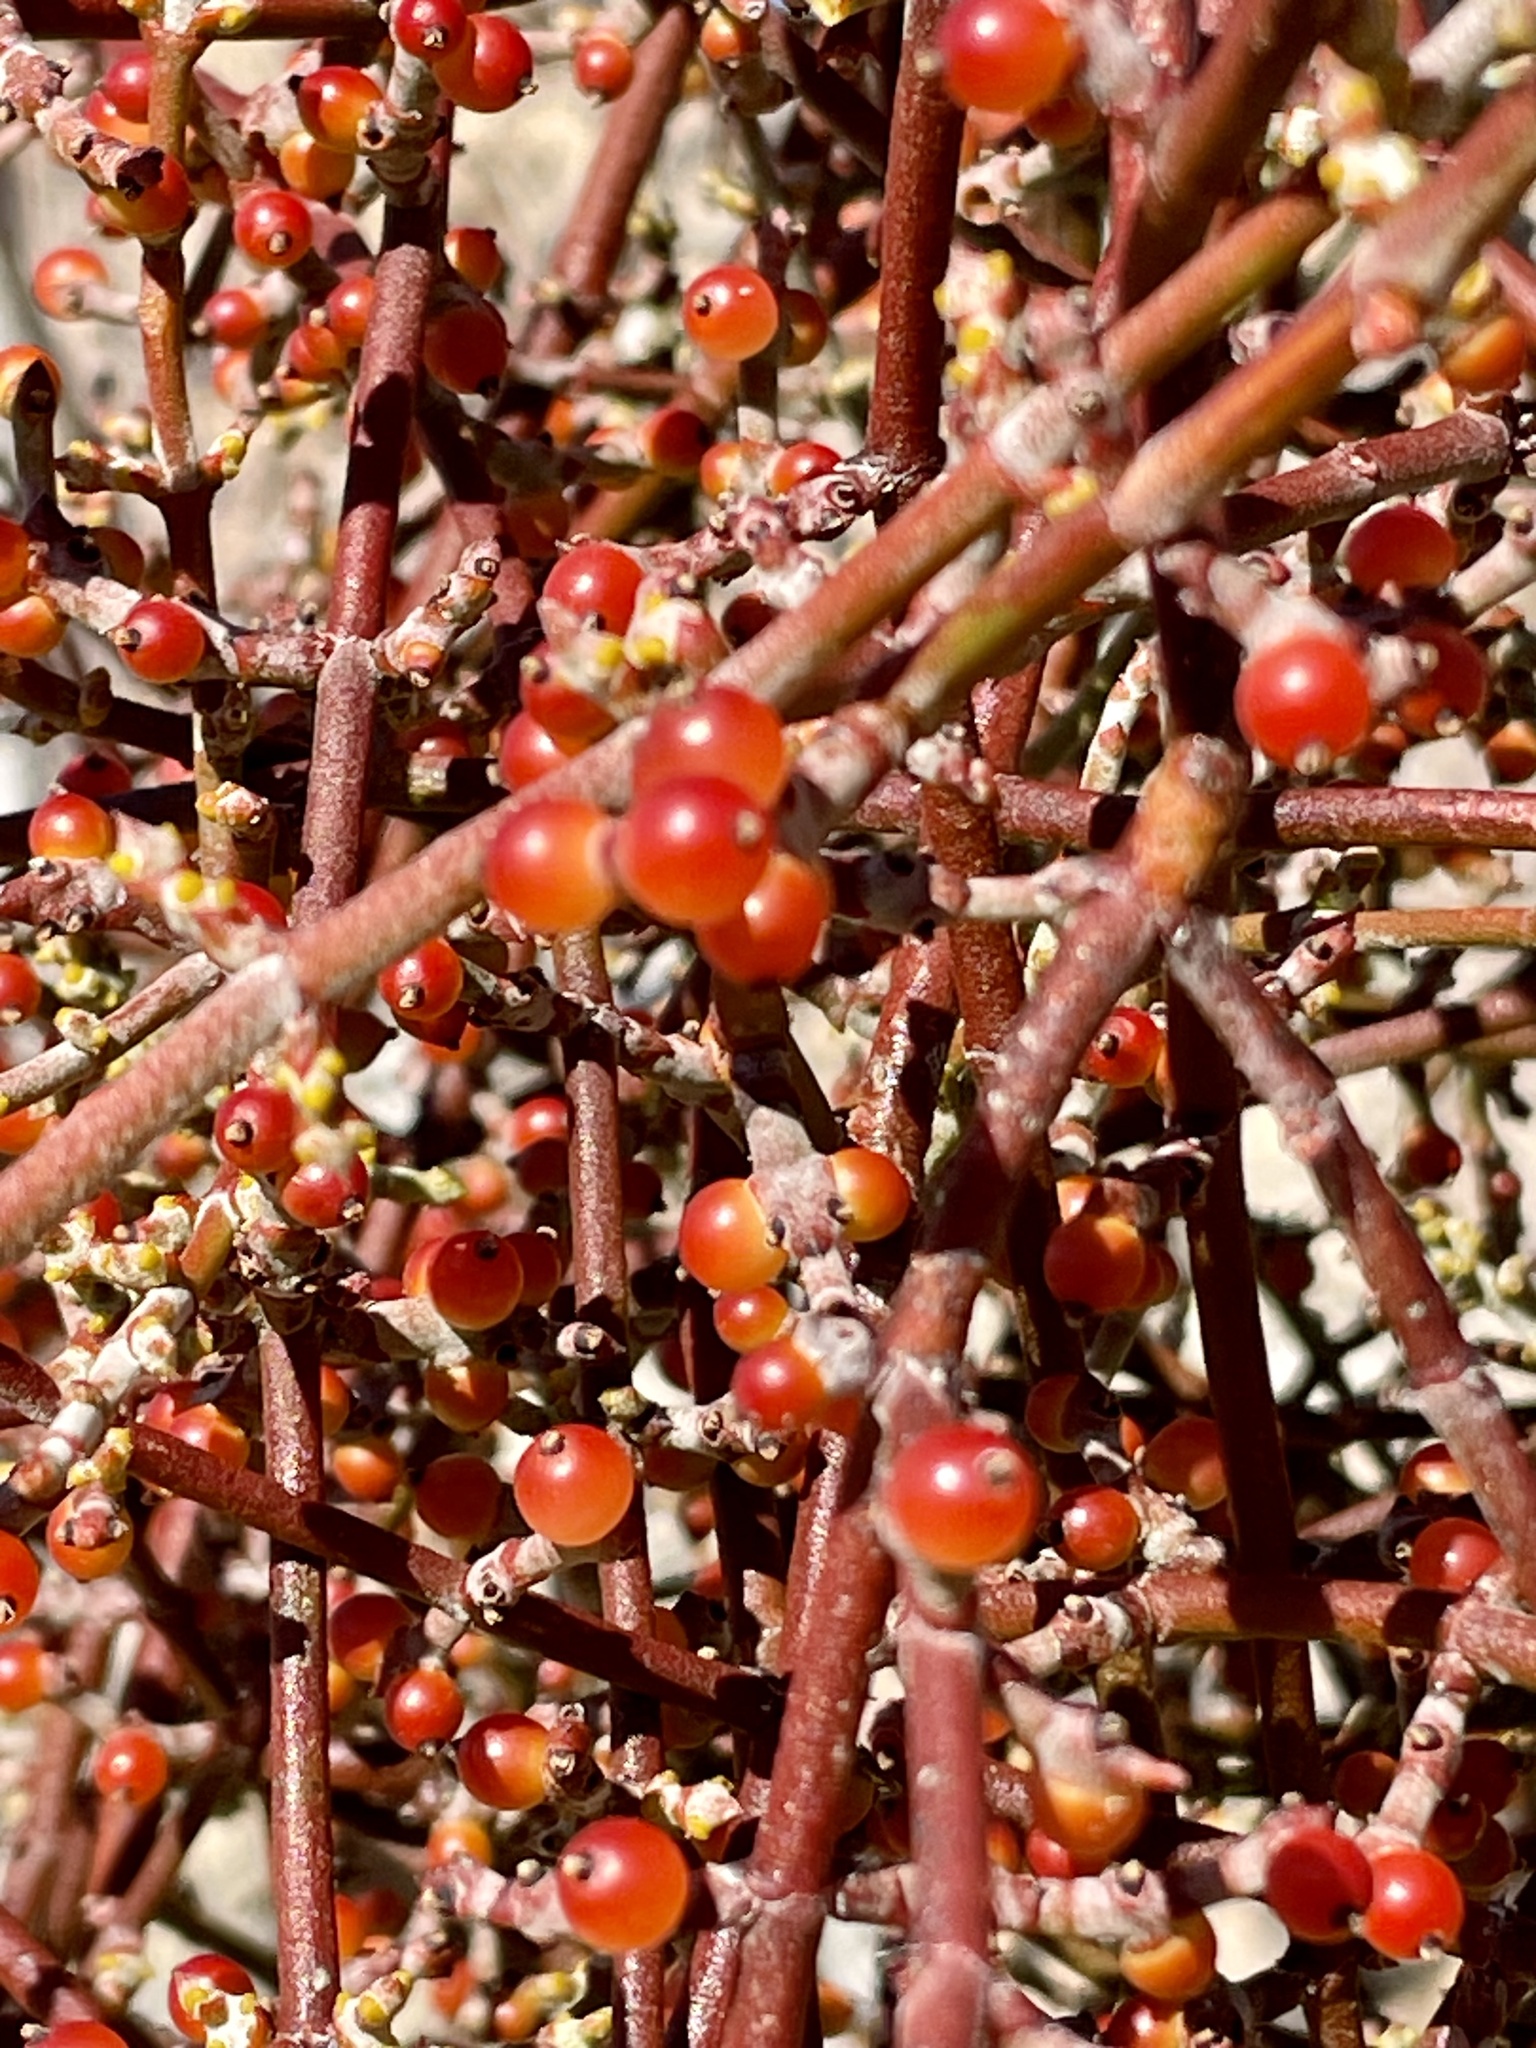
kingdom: Plantae
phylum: Tracheophyta
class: Magnoliopsida
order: Santalales
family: Viscaceae
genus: Phoradendron
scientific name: Phoradendron californicum
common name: Acacia mistletoe
